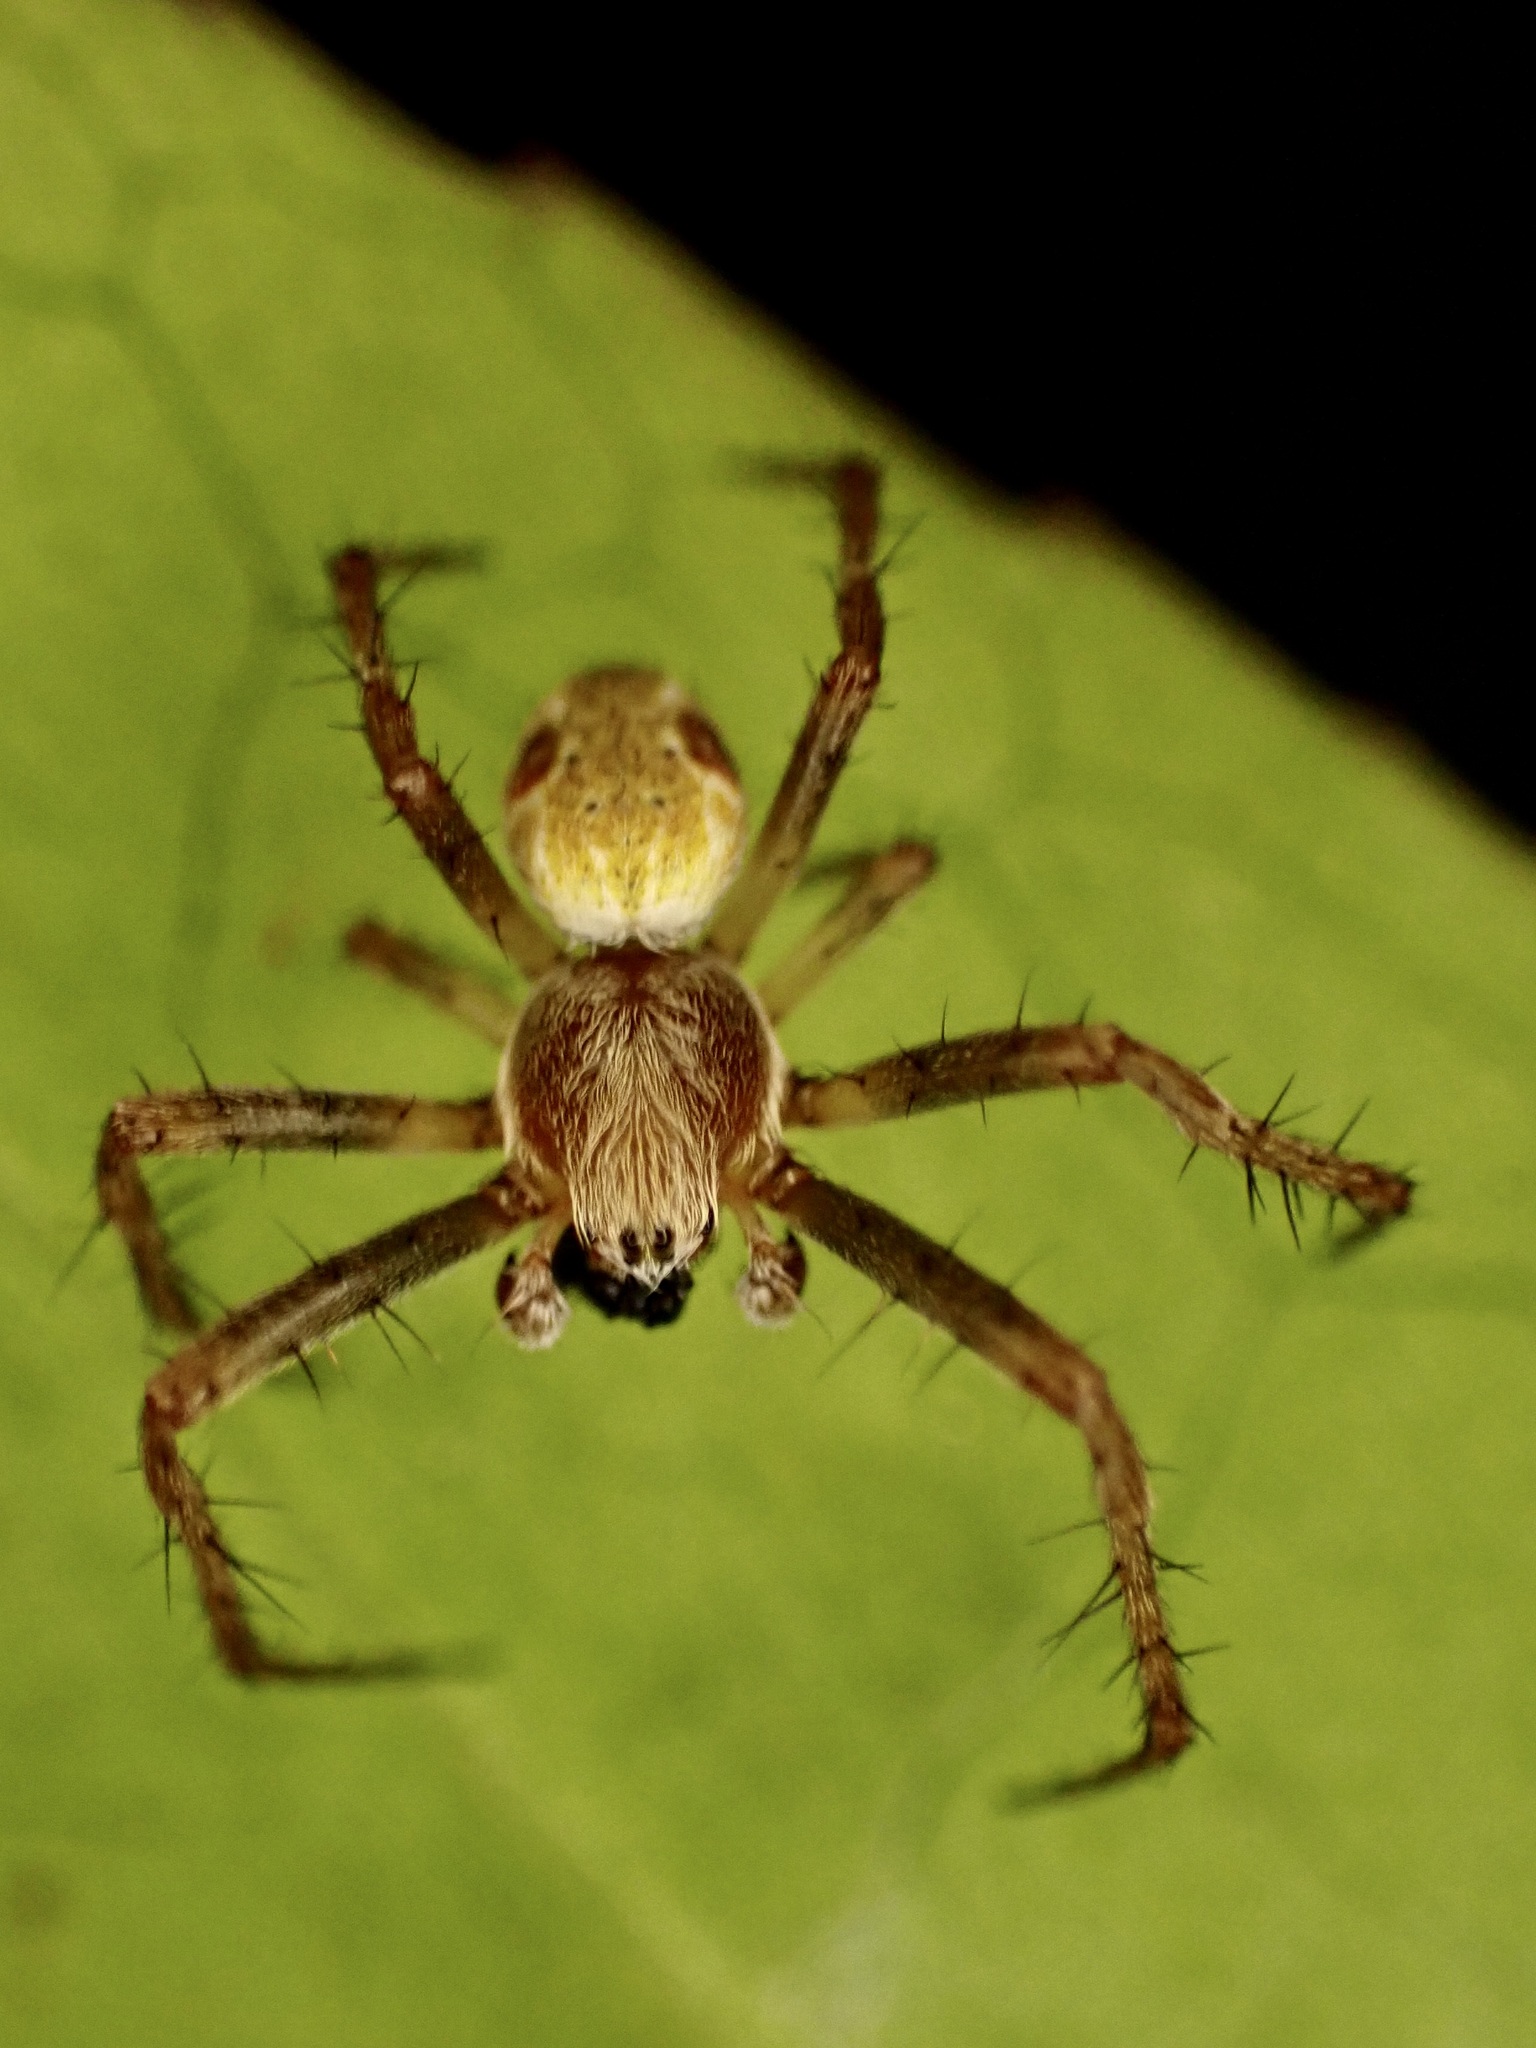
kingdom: Animalia
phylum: Arthropoda
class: Arachnida
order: Araneae
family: Araneidae
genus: Salsa
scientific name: Salsa fuliginata
